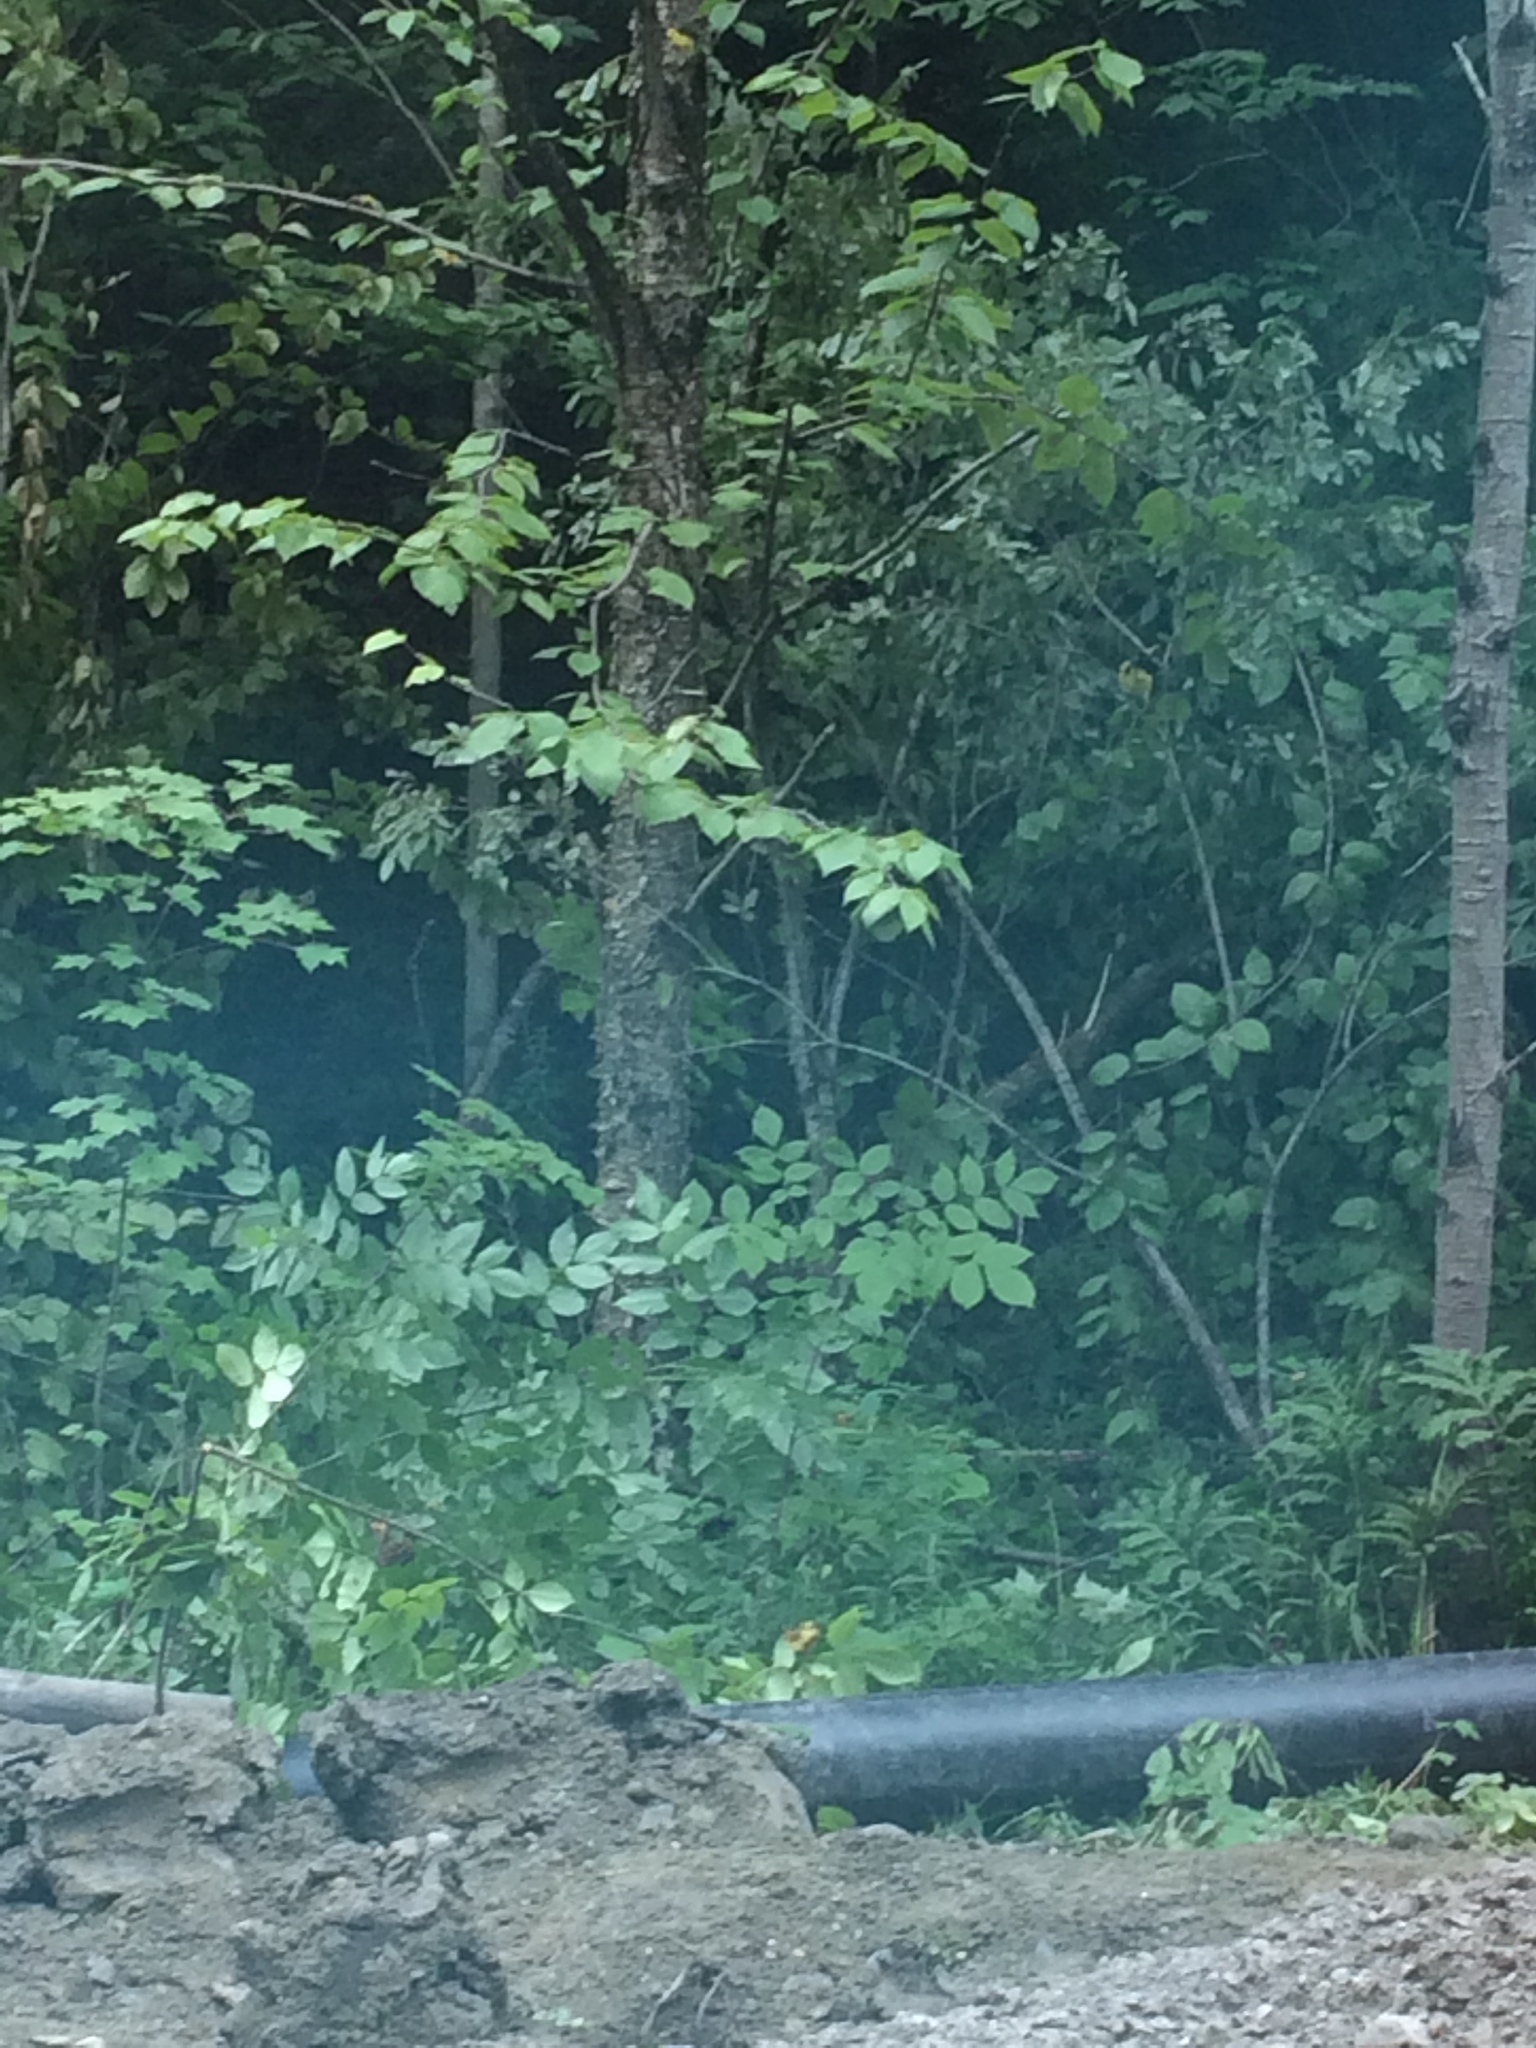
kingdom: Plantae
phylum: Tracheophyta
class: Magnoliopsida
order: Fagales
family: Betulaceae
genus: Betula
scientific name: Betula alleghaniensis
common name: Yellow birch
